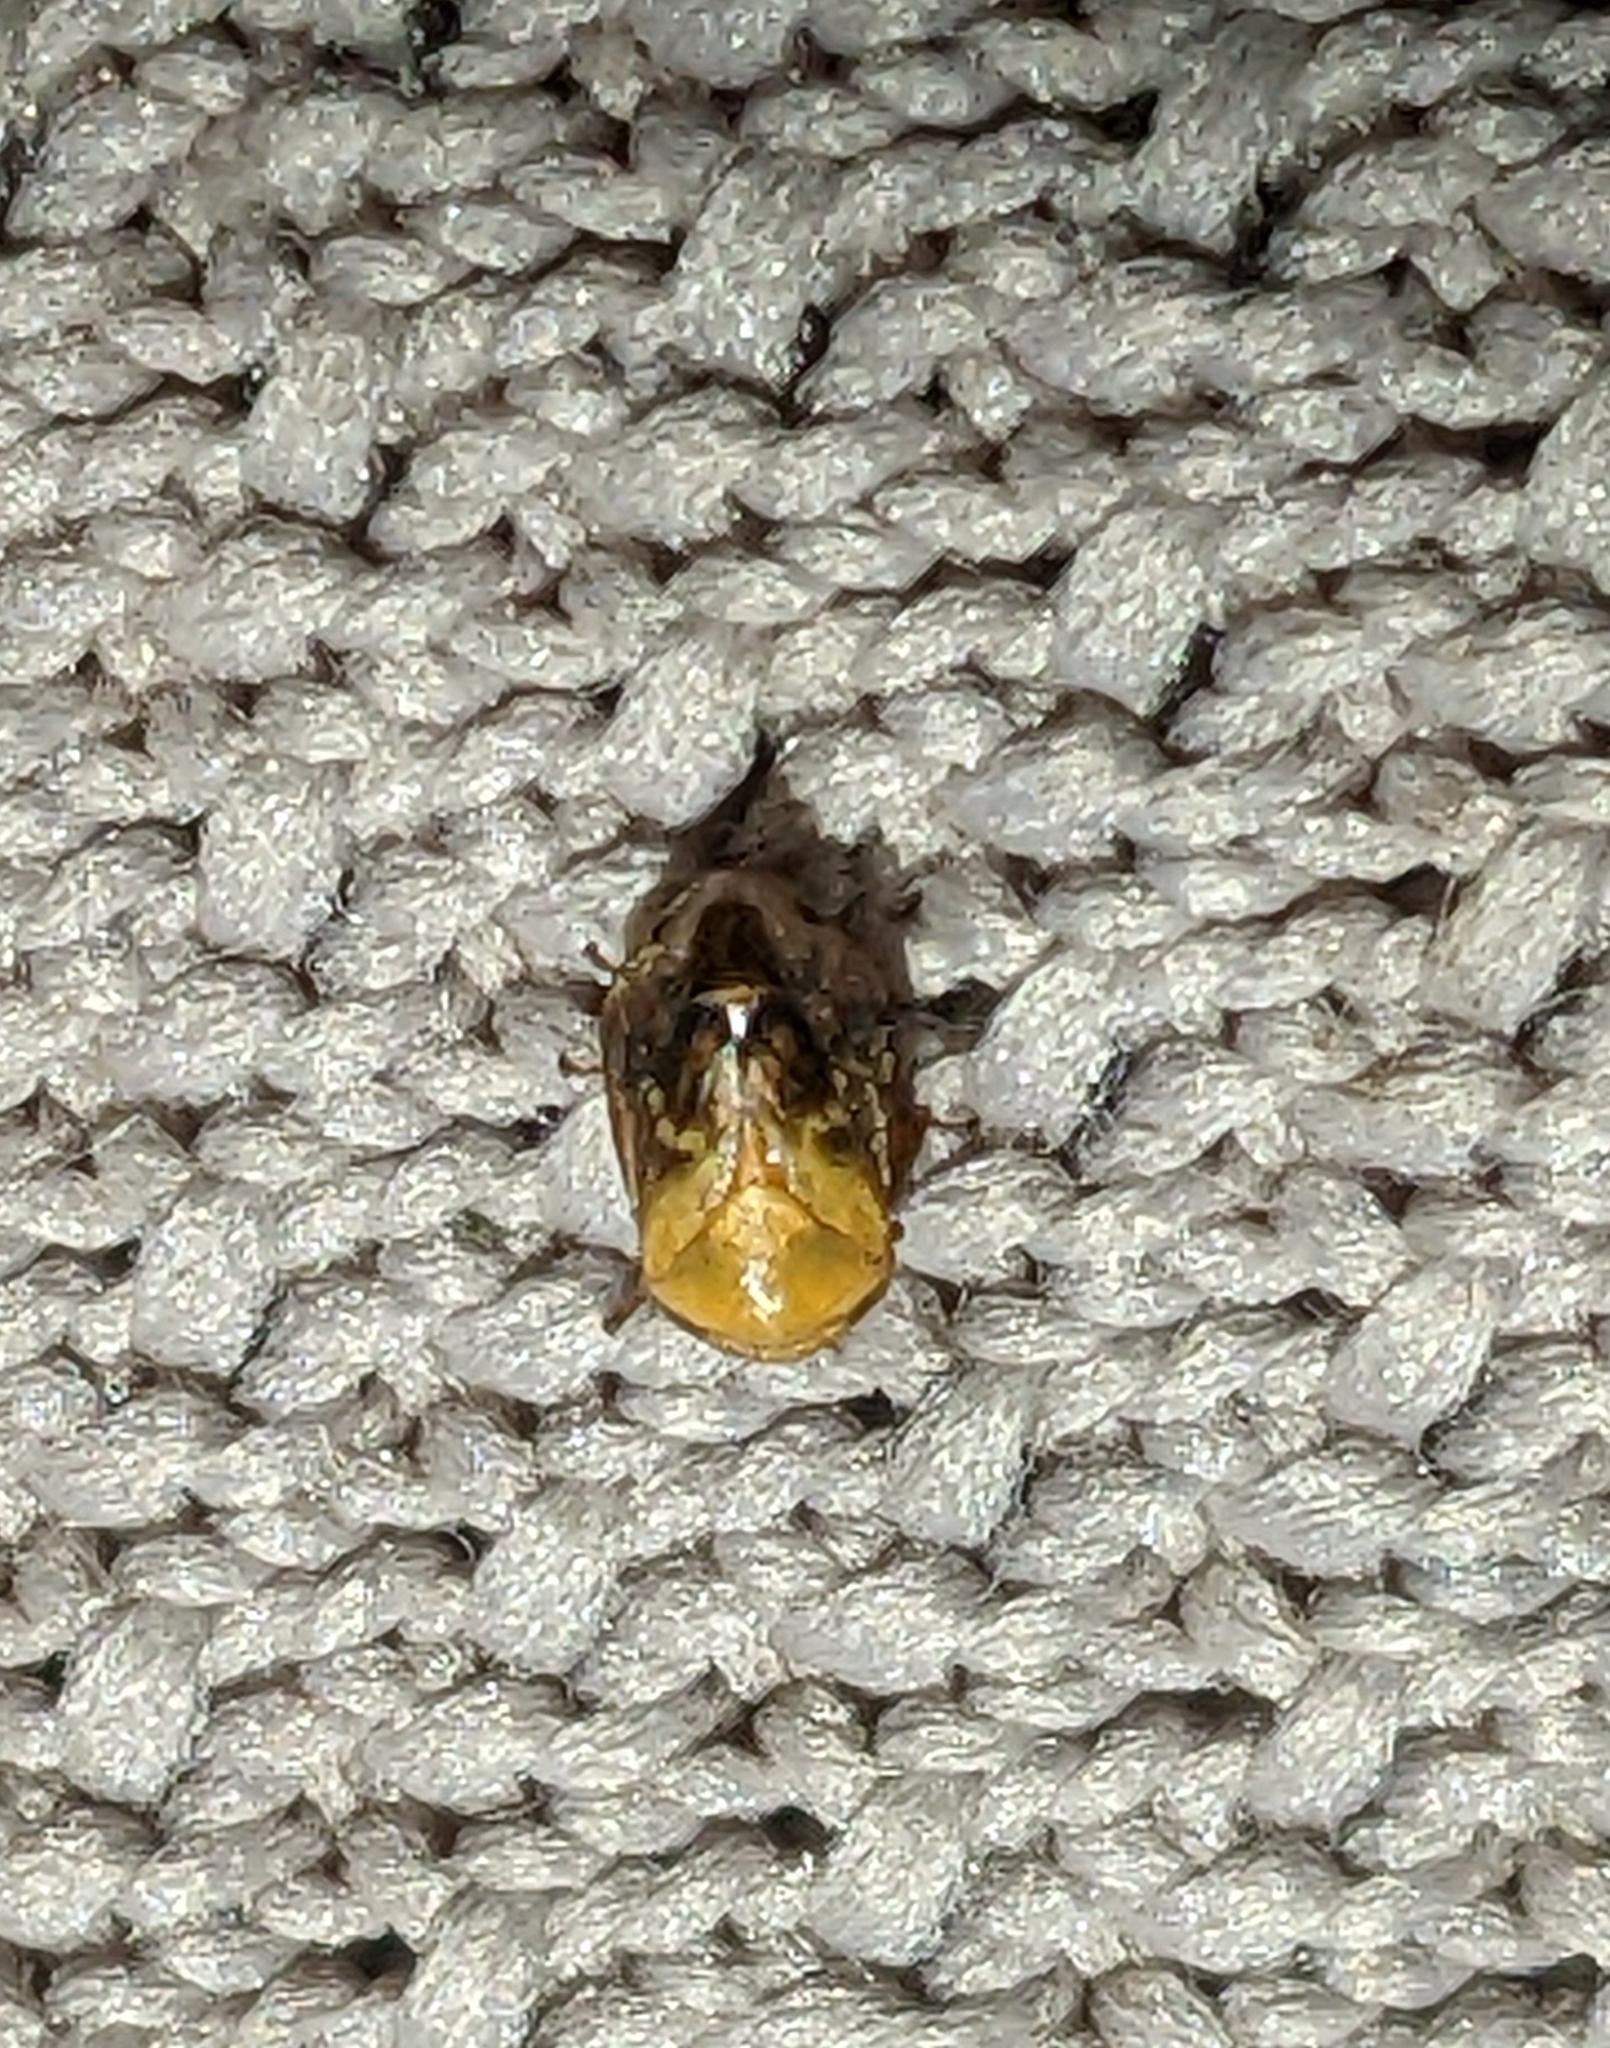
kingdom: Animalia
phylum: Arthropoda
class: Insecta
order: Hemiptera
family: Clastopteridae
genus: Clastoptera
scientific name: Clastoptera achatina
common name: Pecan spittlebug
